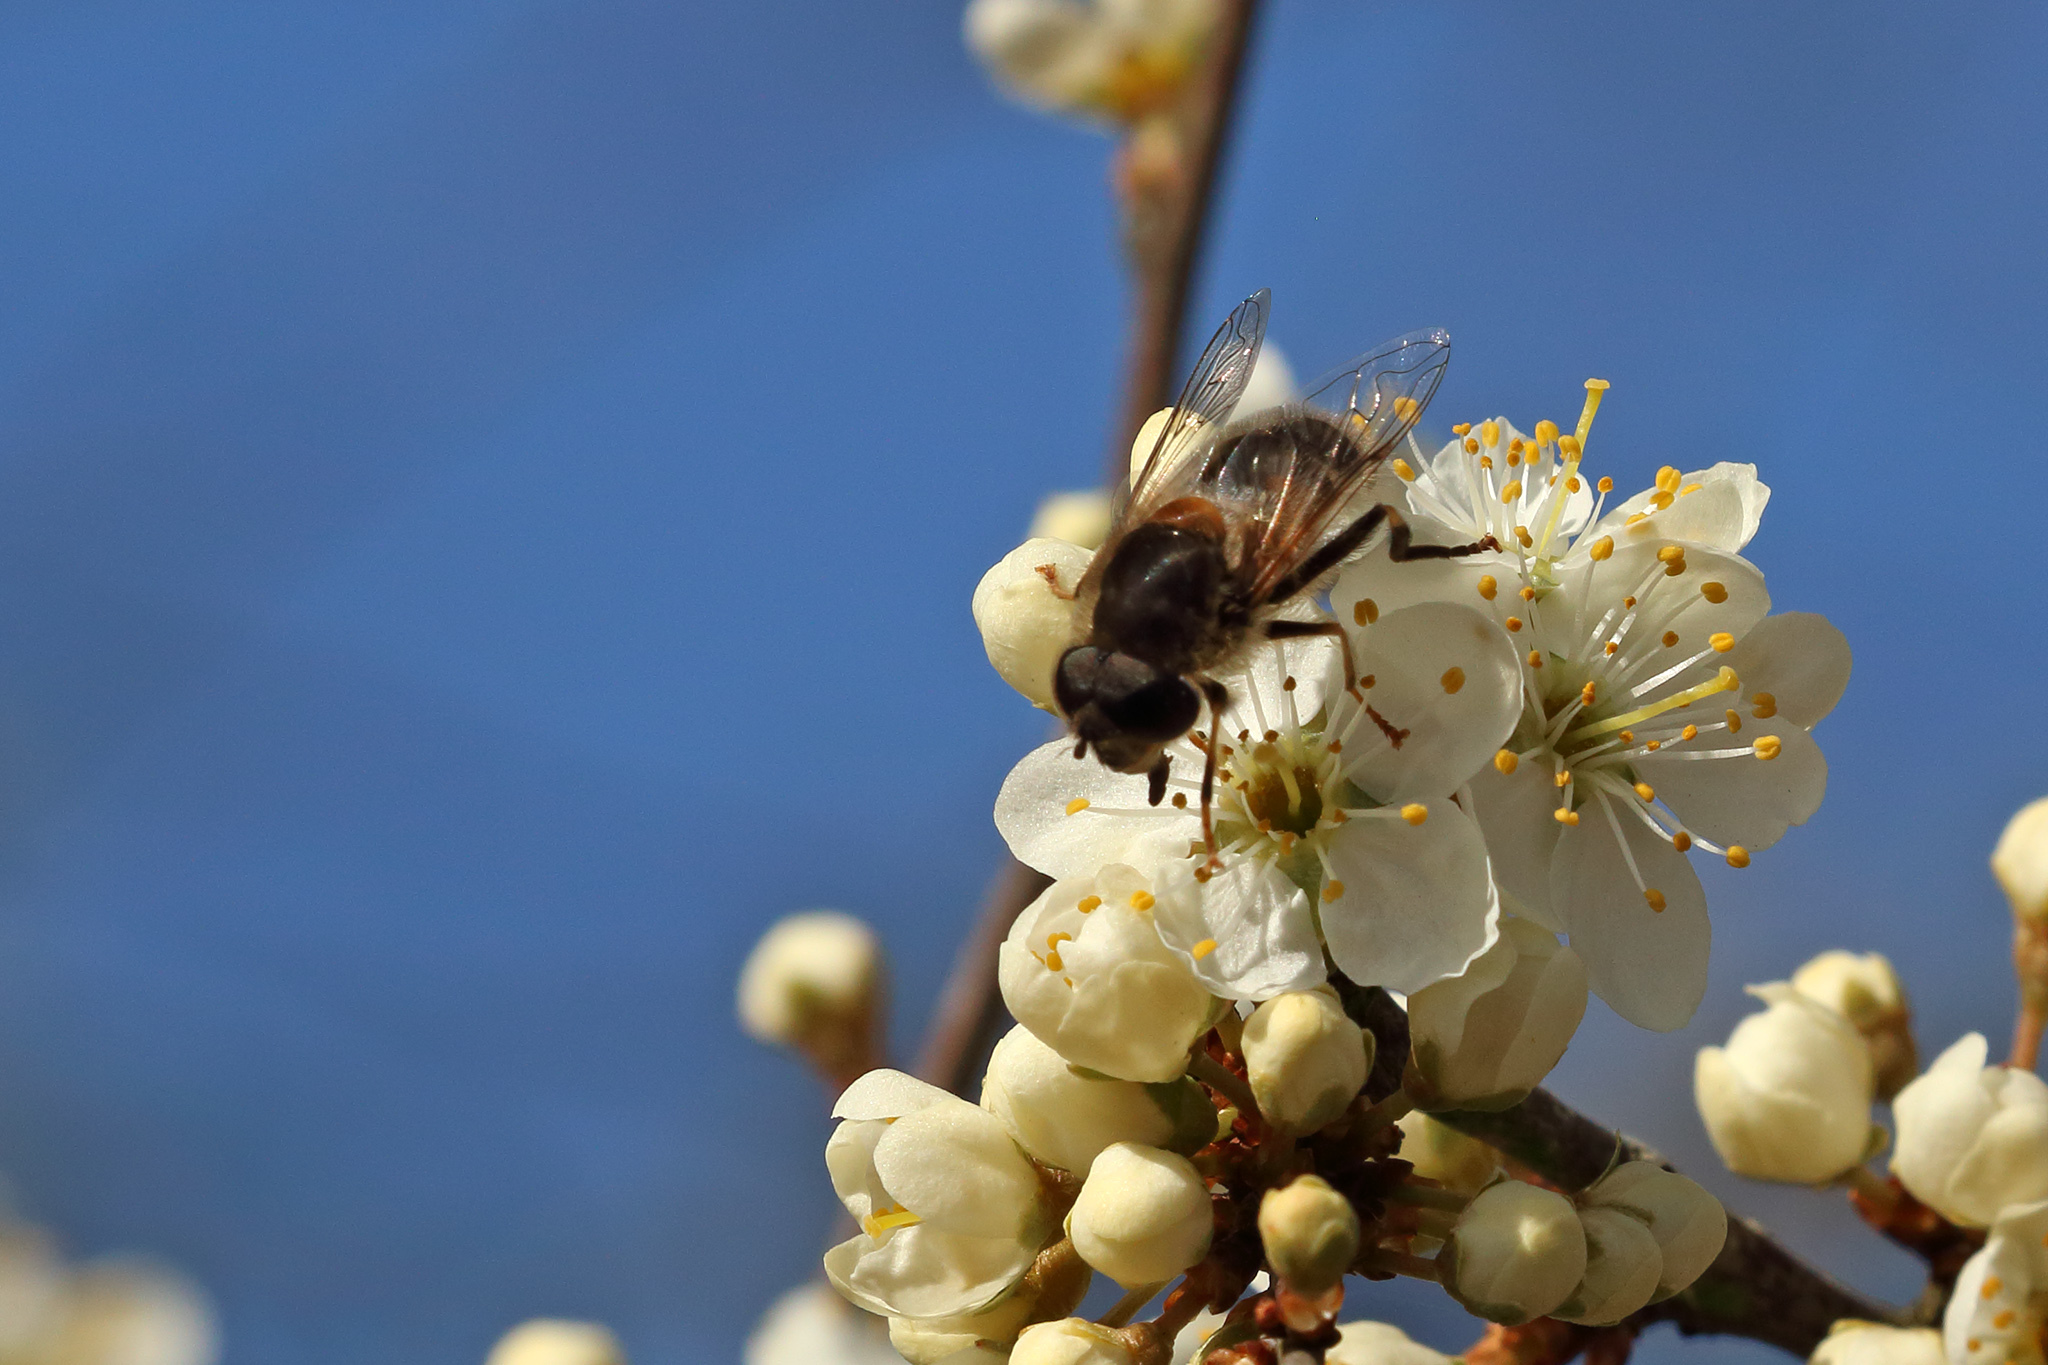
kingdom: Animalia
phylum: Arthropoda
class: Insecta
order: Diptera
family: Syrphidae
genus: Eristalis
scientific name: Eristalis pertinax
